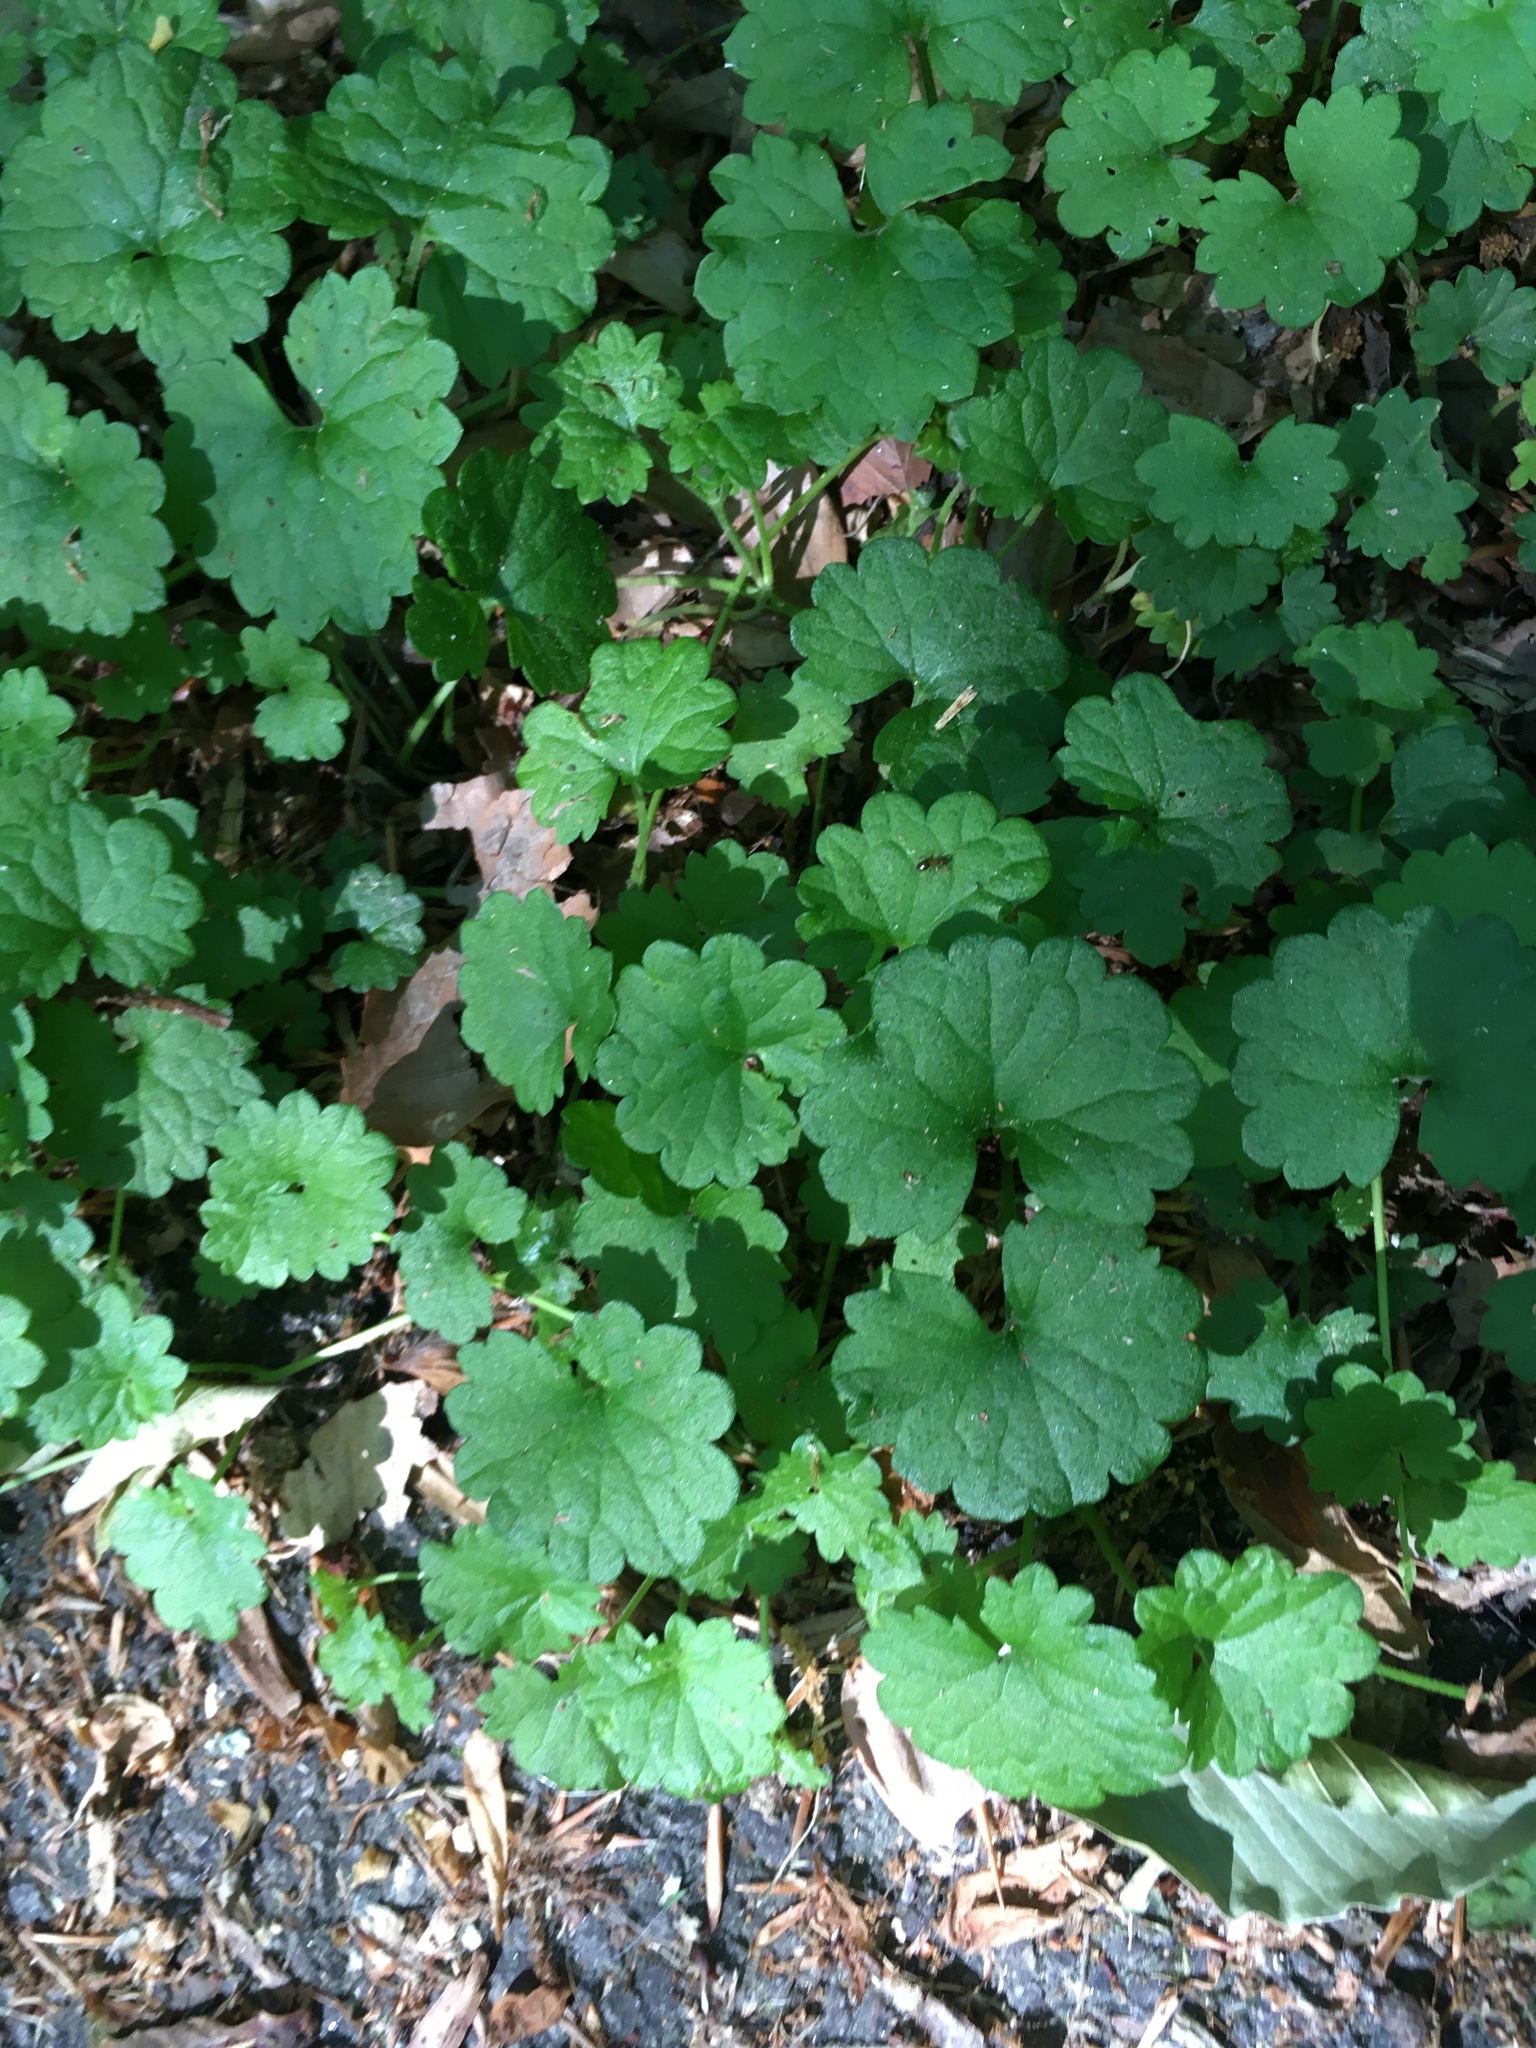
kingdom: Plantae
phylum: Tracheophyta
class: Magnoliopsida
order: Lamiales
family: Lamiaceae
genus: Glechoma
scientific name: Glechoma hederacea
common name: Ground ivy
